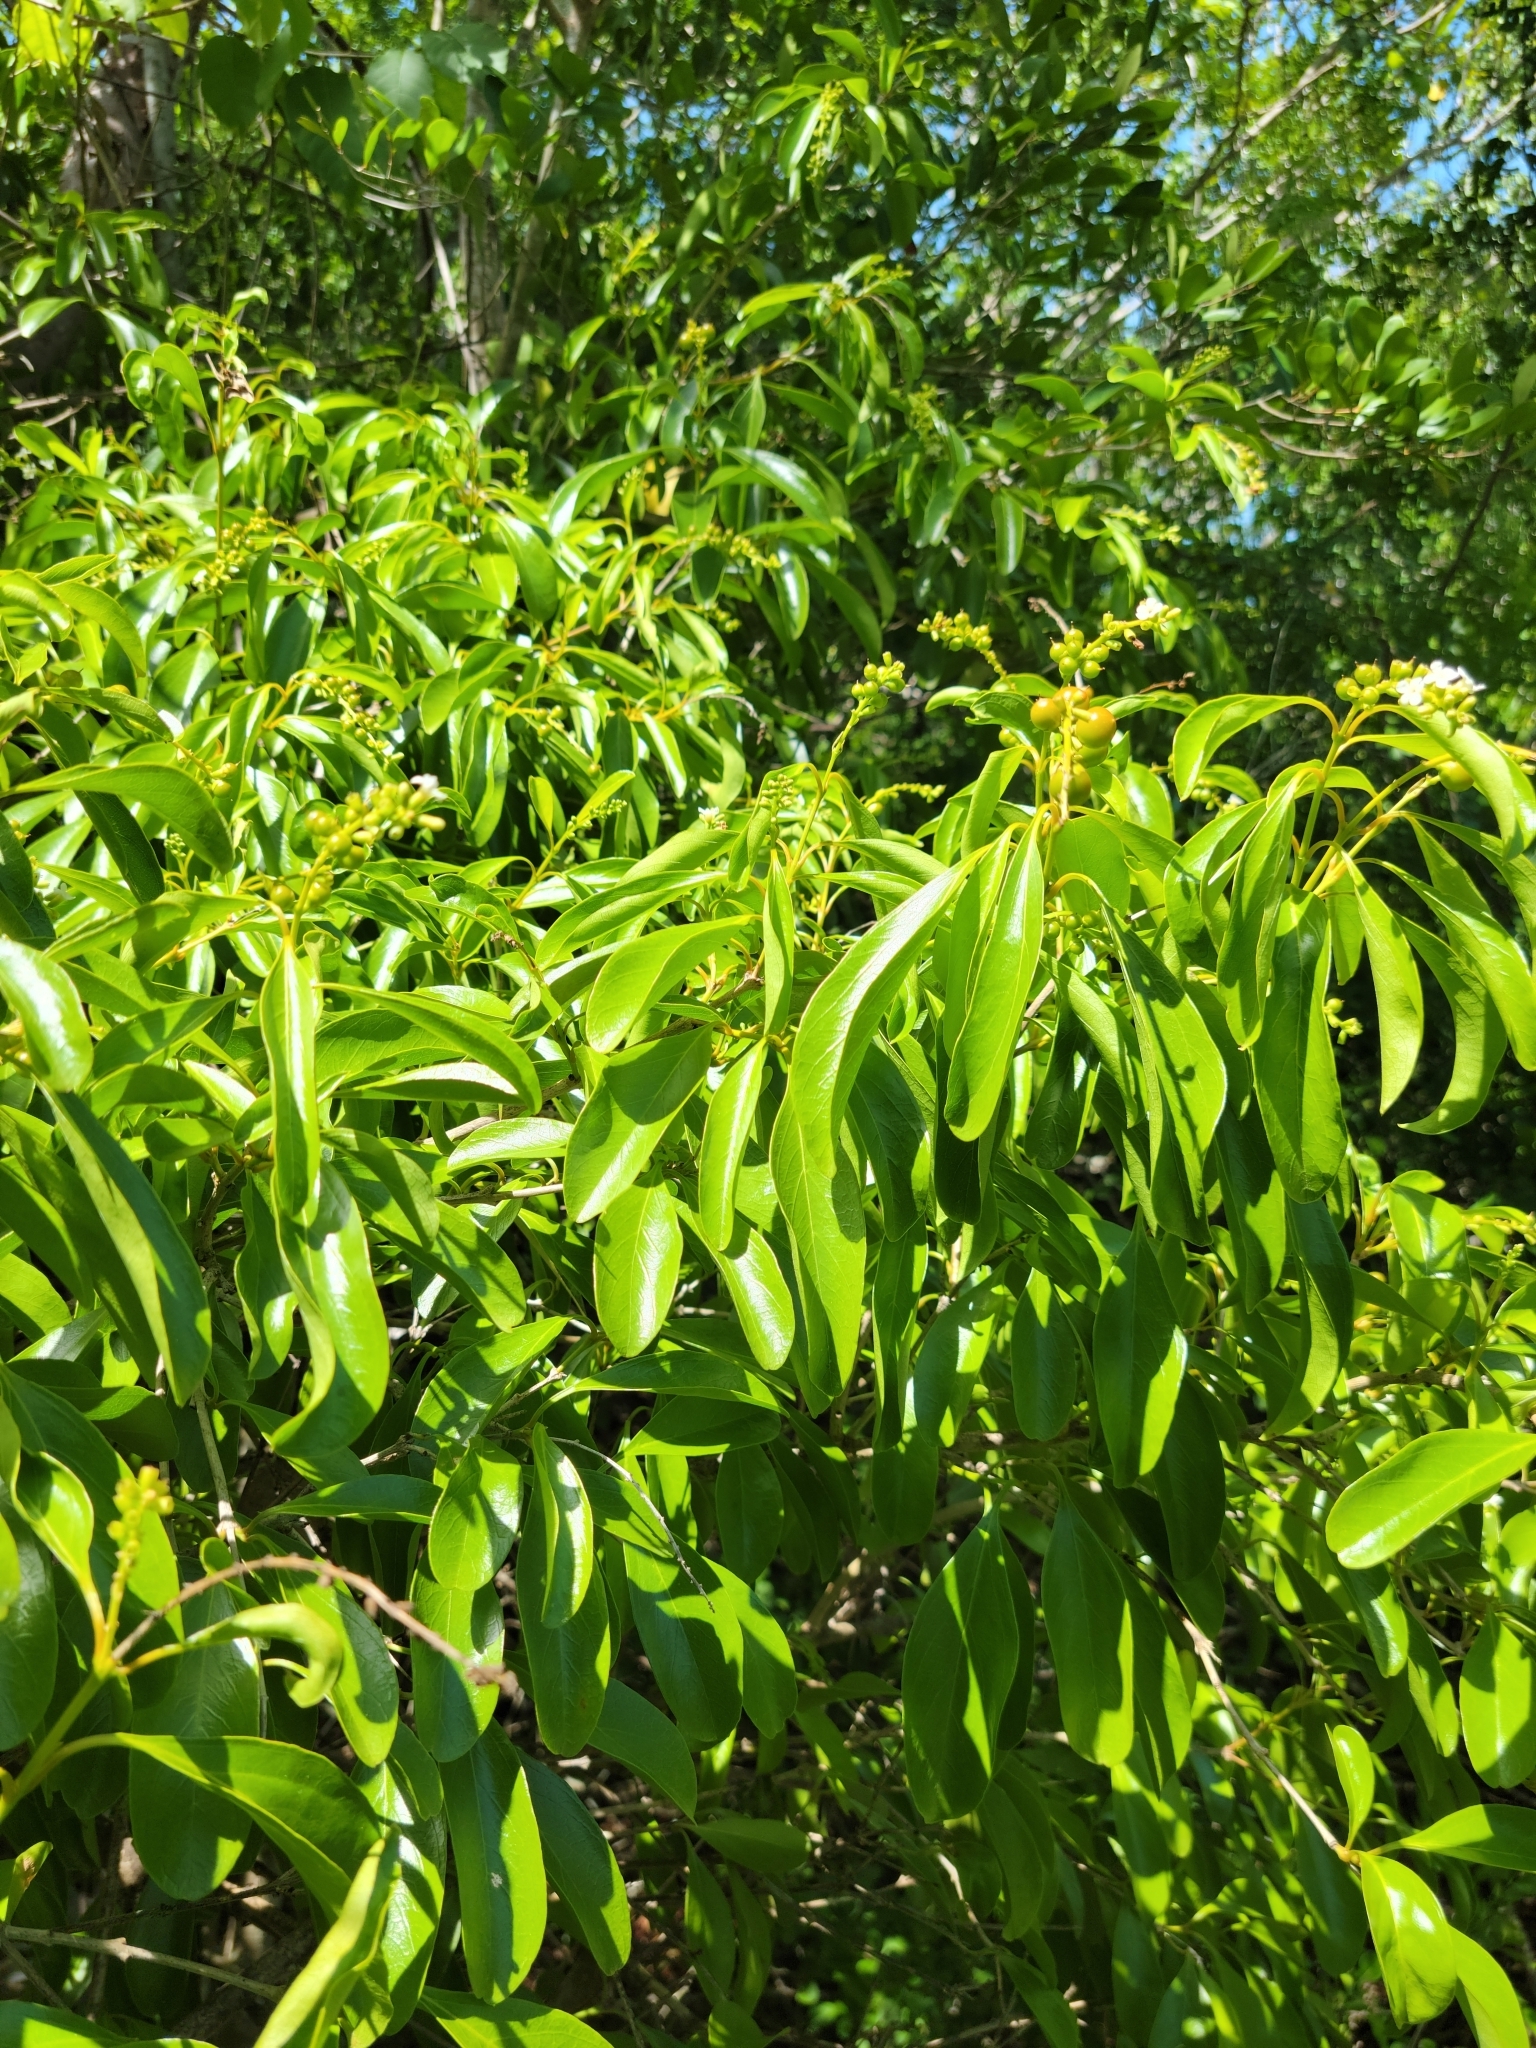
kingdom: Plantae
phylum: Tracheophyta
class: Magnoliopsida
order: Lamiales
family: Verbenaceae
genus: Citharexylum
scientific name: Citharexylum spinosum
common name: Fiddlewood
